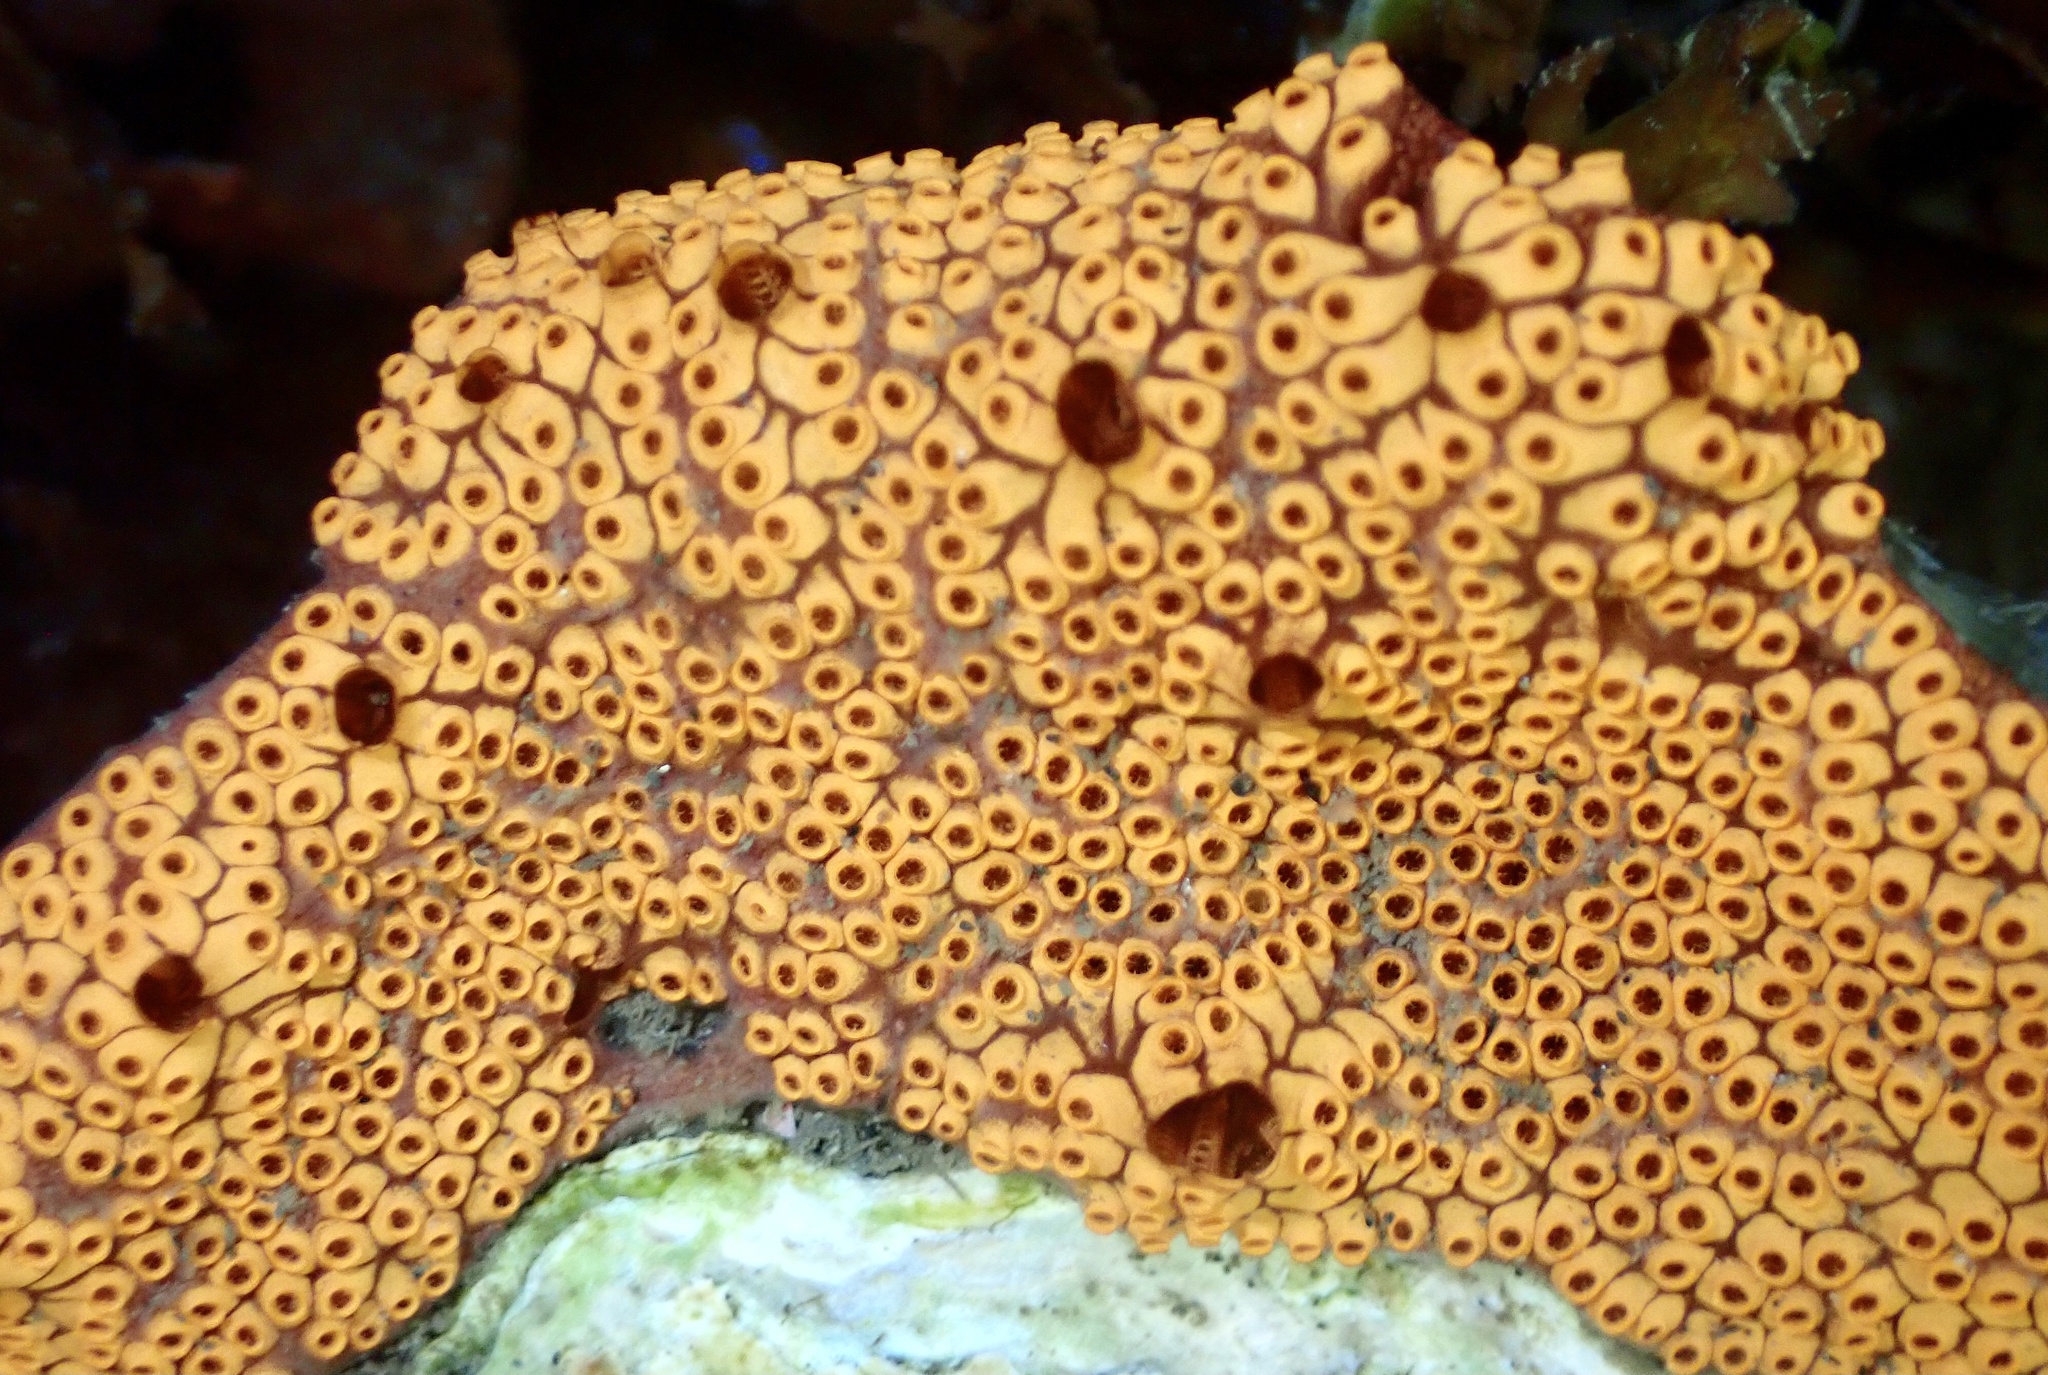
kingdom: Animalia
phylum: Chordata
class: Ascidiacea
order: Stolidobranchia
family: Styelidae
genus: Botrylloides
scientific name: Botrylloides diegensis
